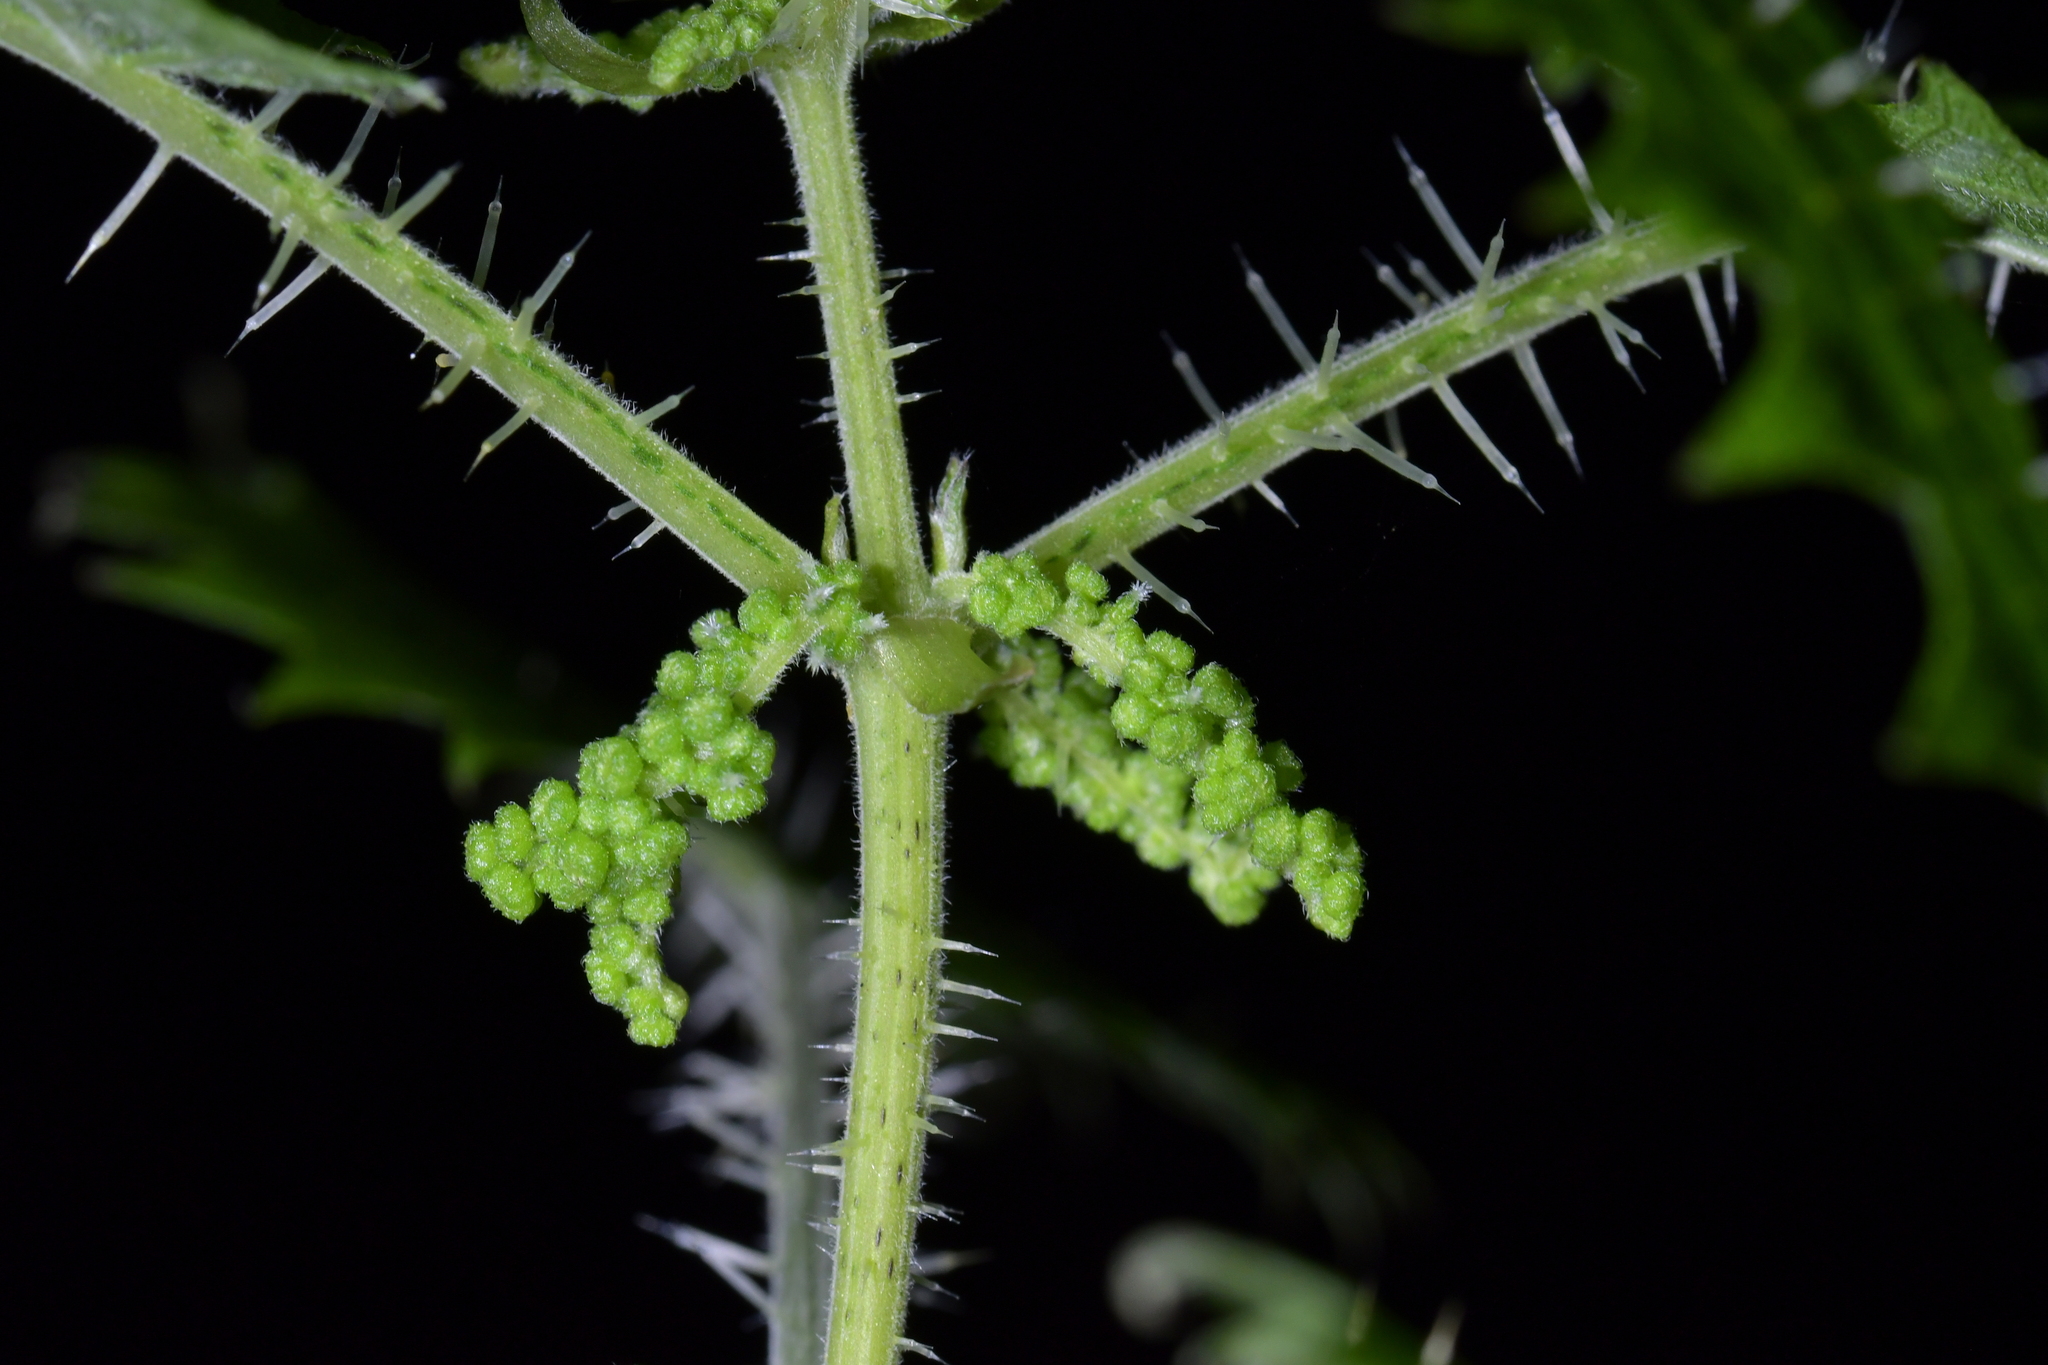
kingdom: Plantae
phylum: Tracheophyta
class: Magnoliopsida
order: Rosales
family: Urticaceae
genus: Urtica
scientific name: Urtica ferox
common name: Tree nettle
